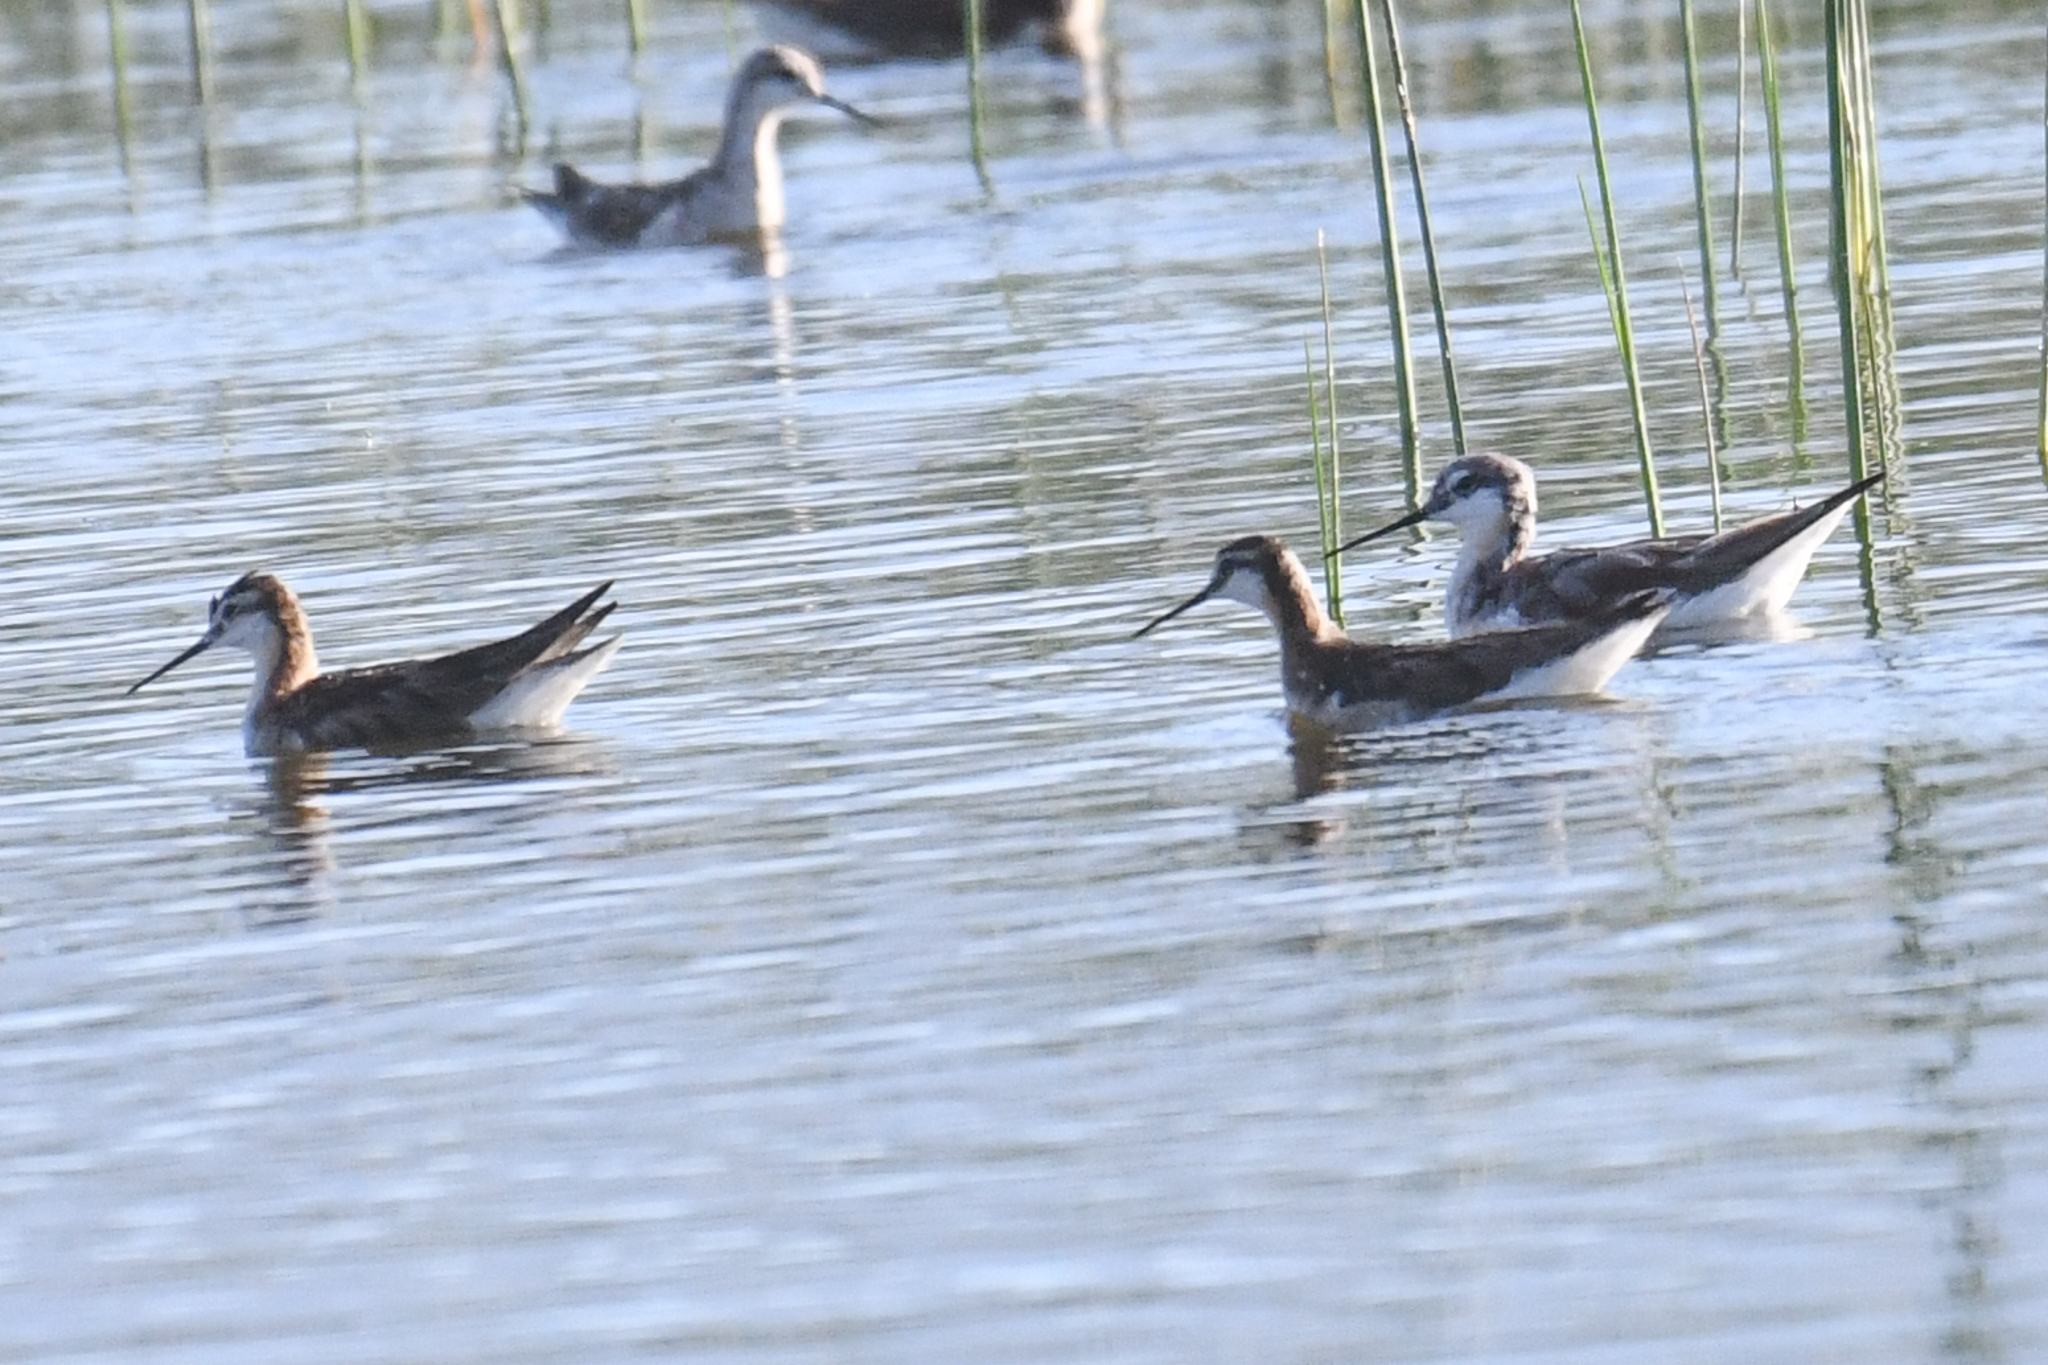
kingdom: Animalia
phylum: Chordata
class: Aves
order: Charadriiformes
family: Scolopacidae
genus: Phalaropus
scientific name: Phalaropus tricolor
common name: Wilson's phalarope
